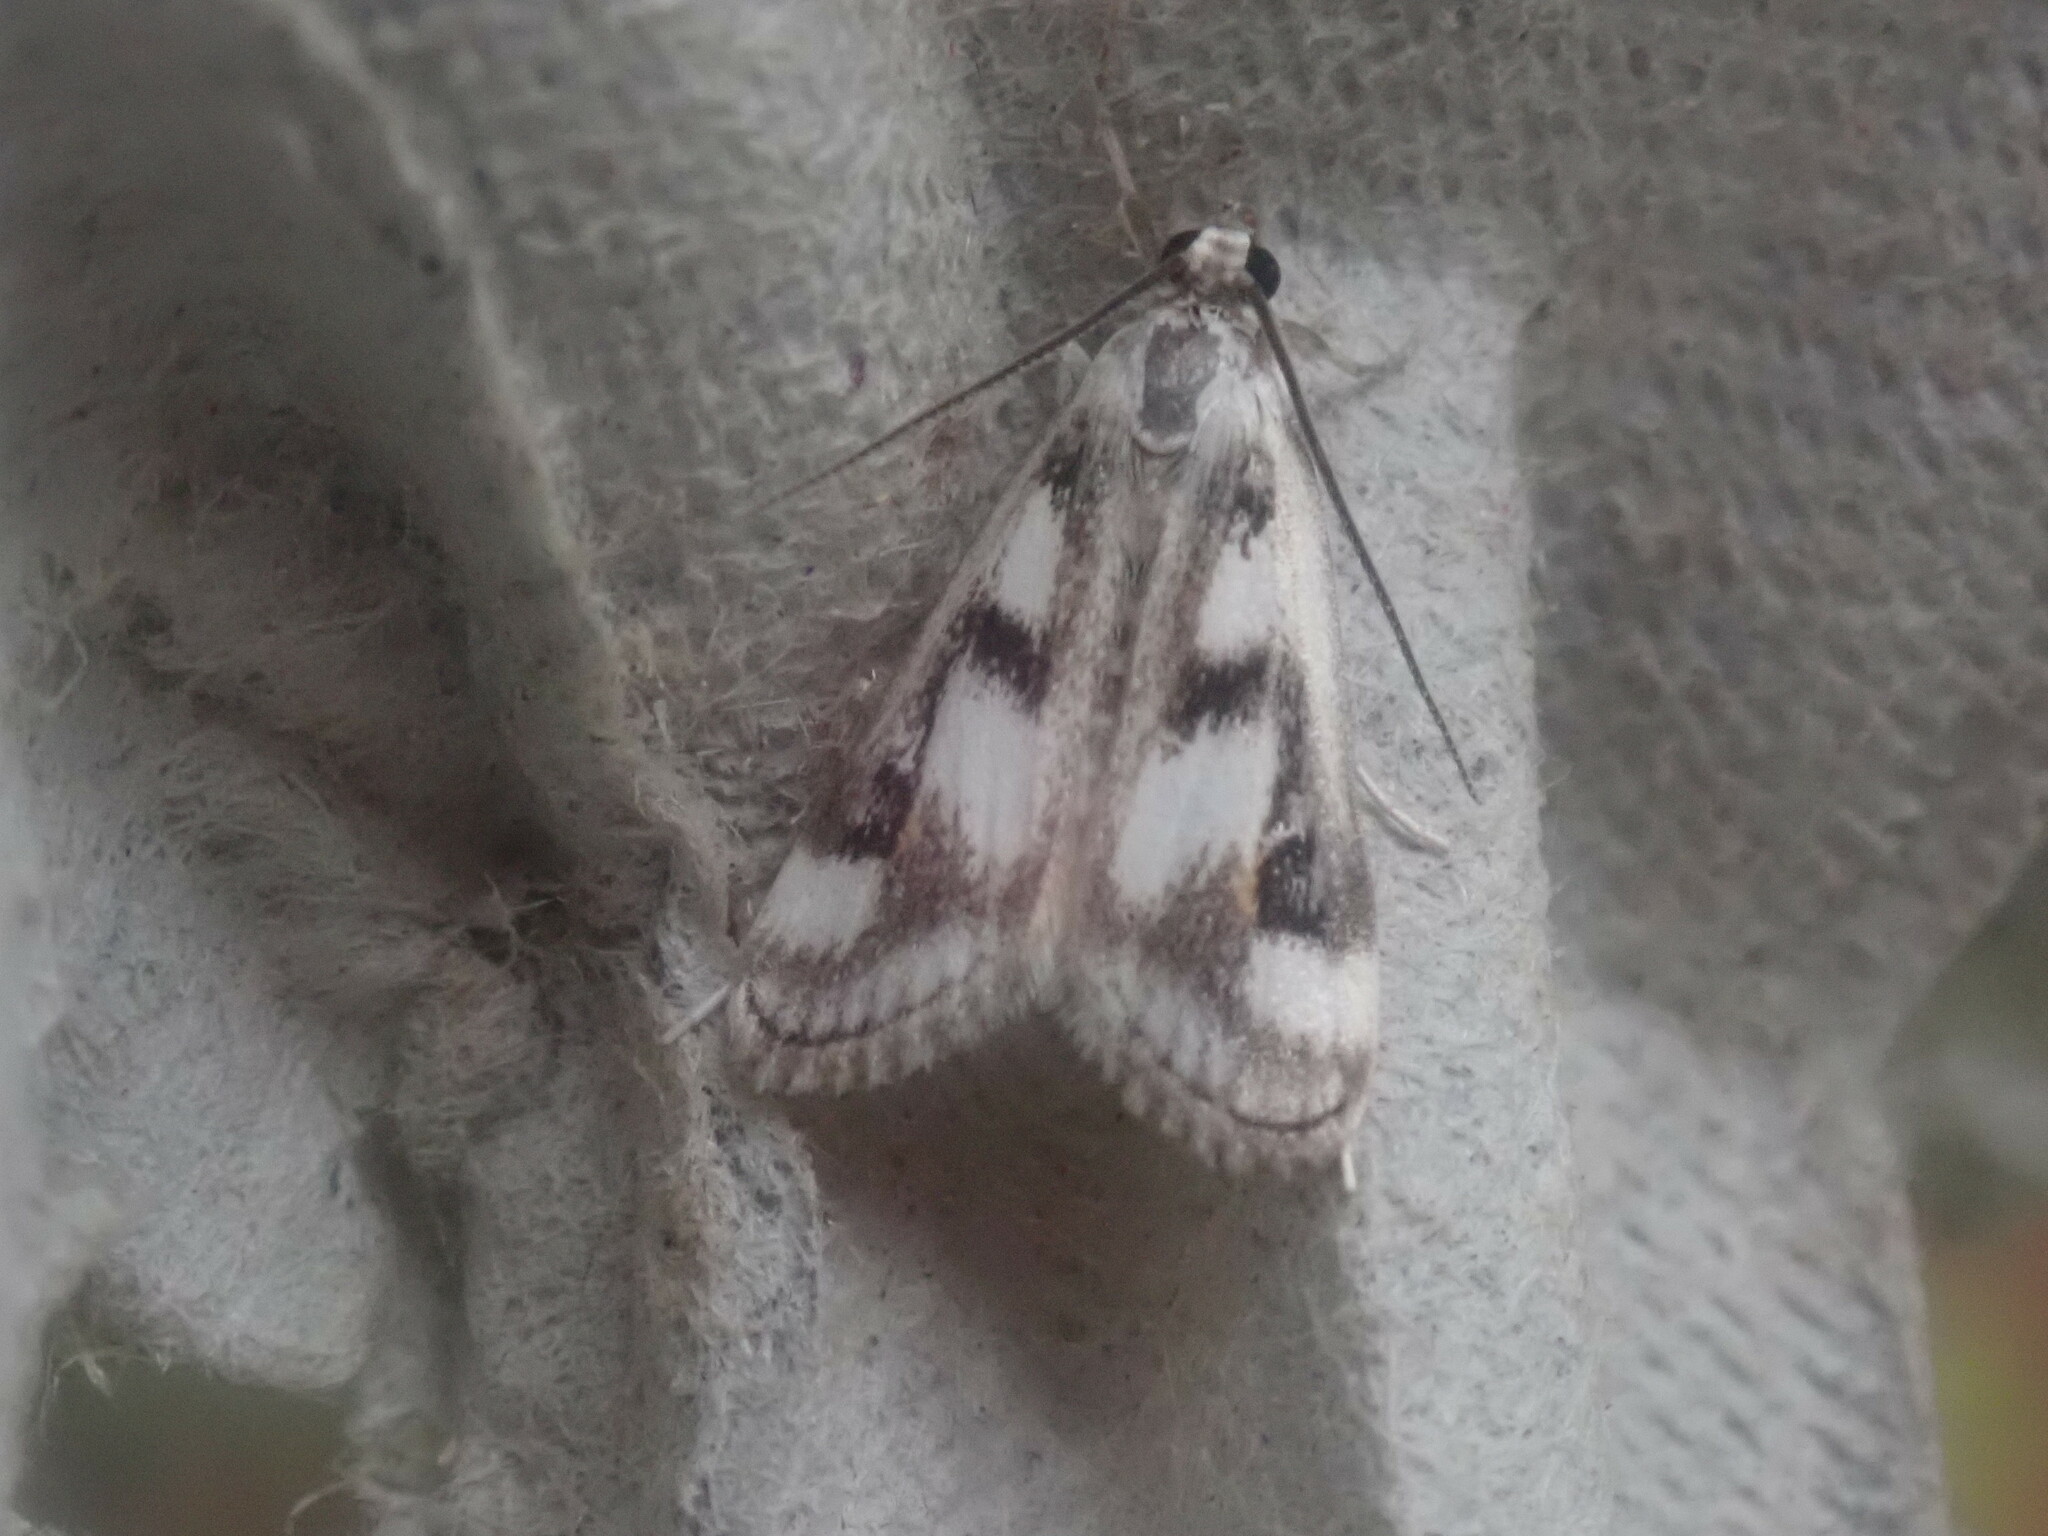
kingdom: Animalia
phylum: Arthropoda
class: Insecta
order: Lepidoptera
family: Crambidae
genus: Parapoynx
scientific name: Parapoynx maculalis
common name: Polymorphic pondweed moth
